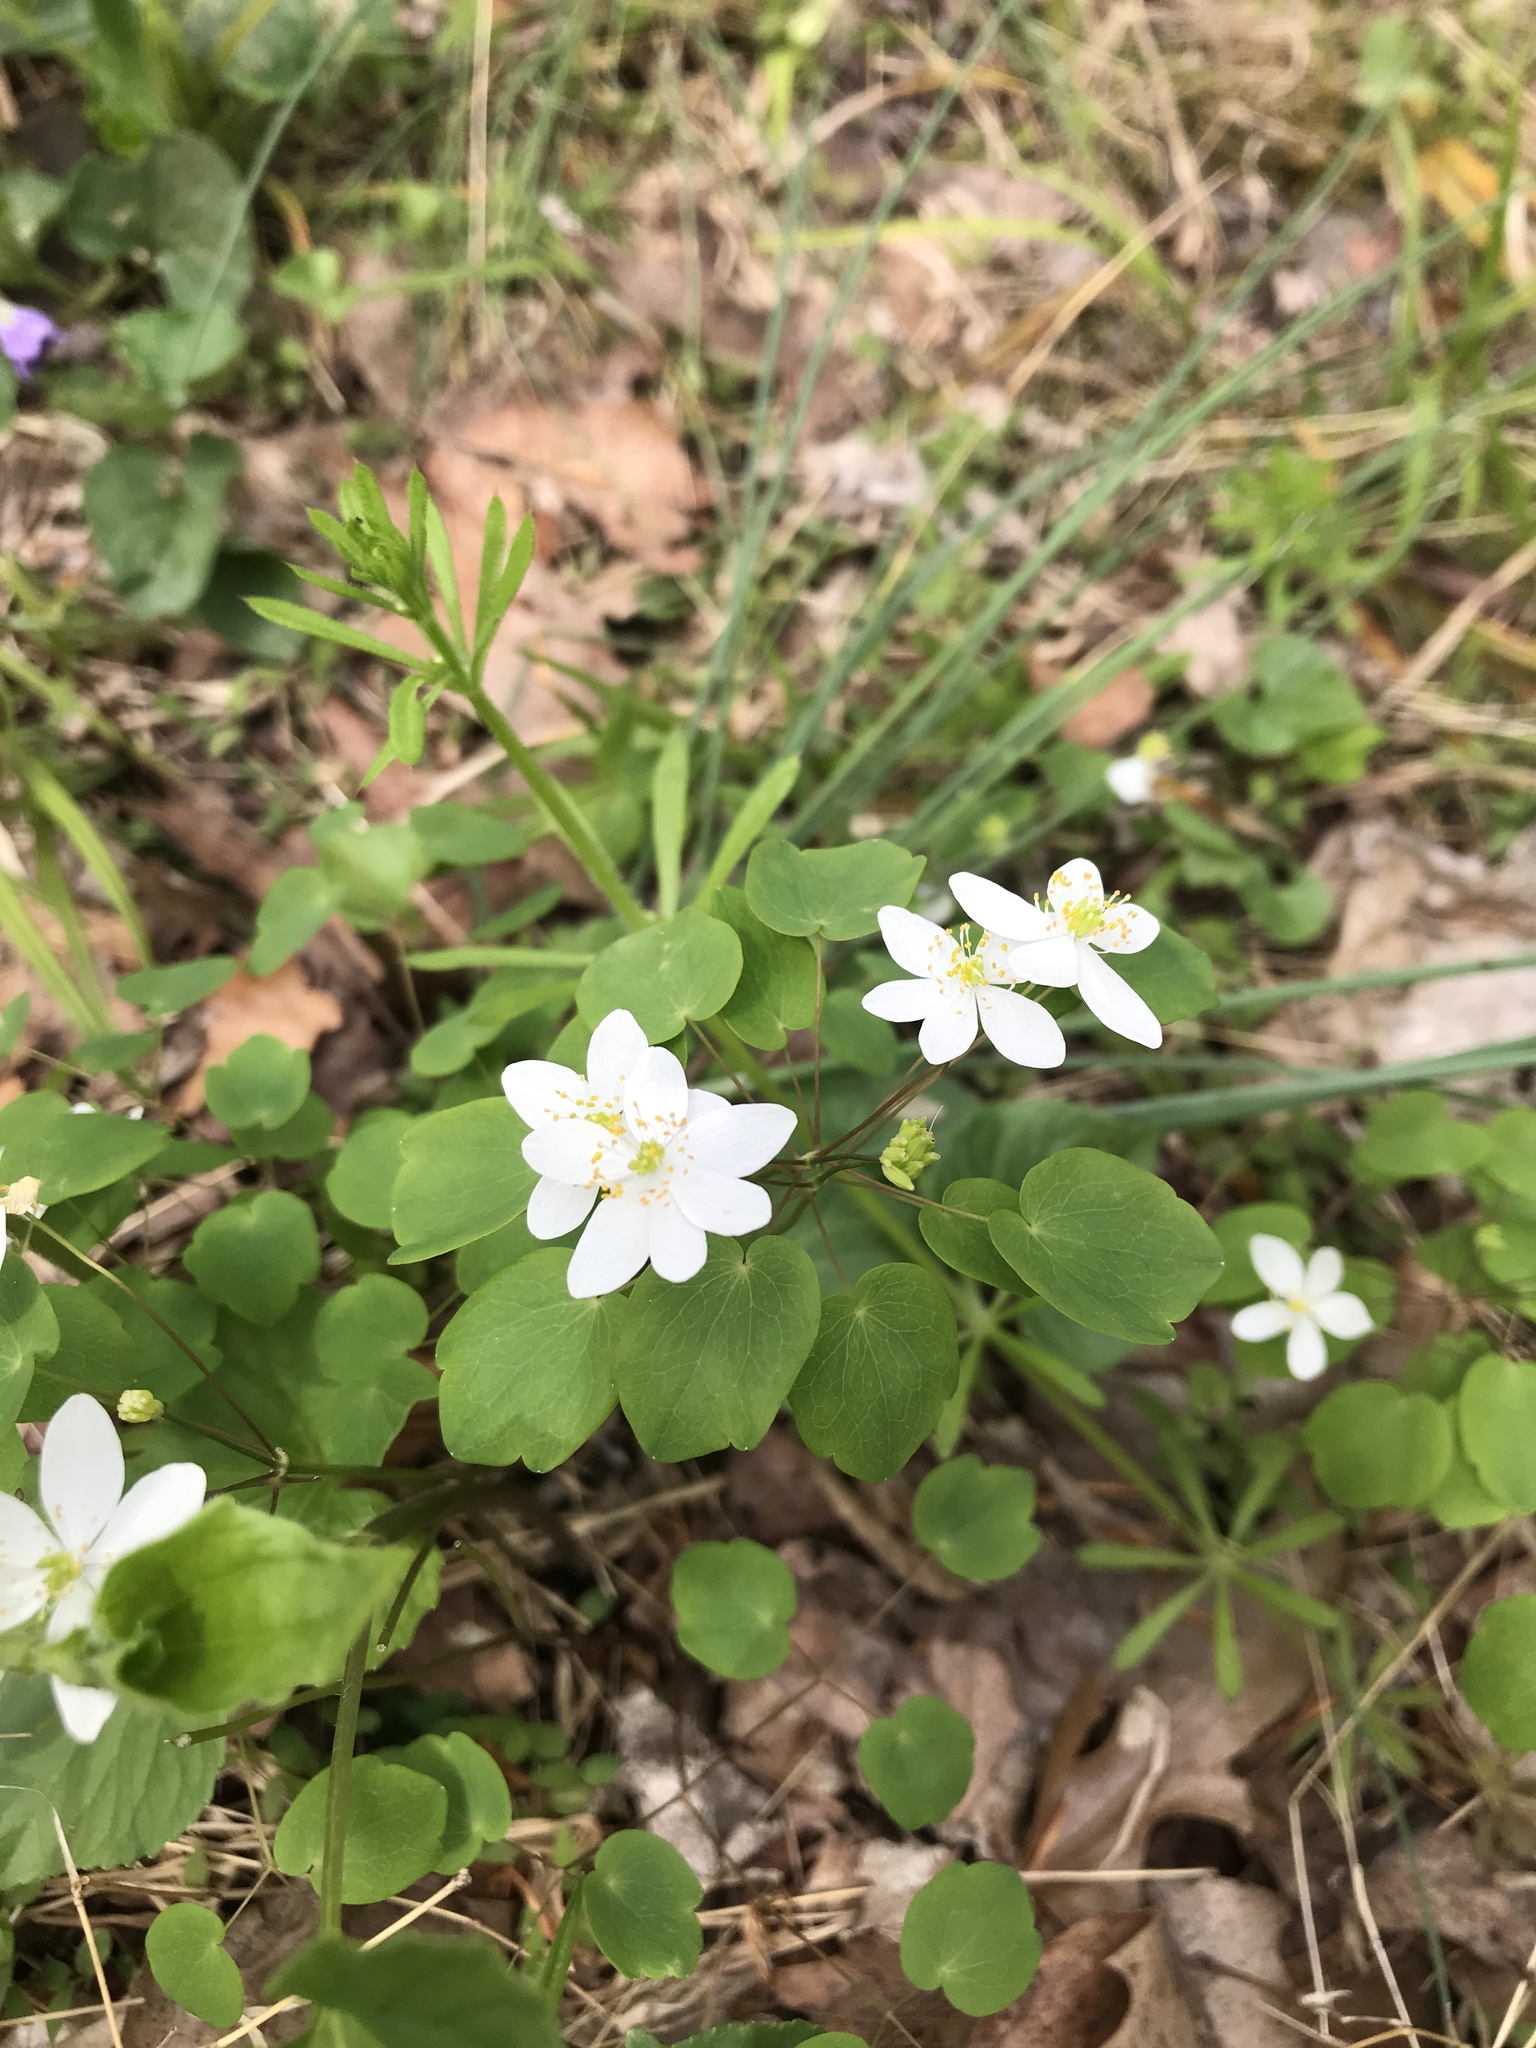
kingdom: Plantae
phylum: Tracheophyta
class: Magnoliopsida
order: Ranunculales
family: Ranunculaceae
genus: Thalictrum
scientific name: Thalictrum thalictroides
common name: Rue-anemone
